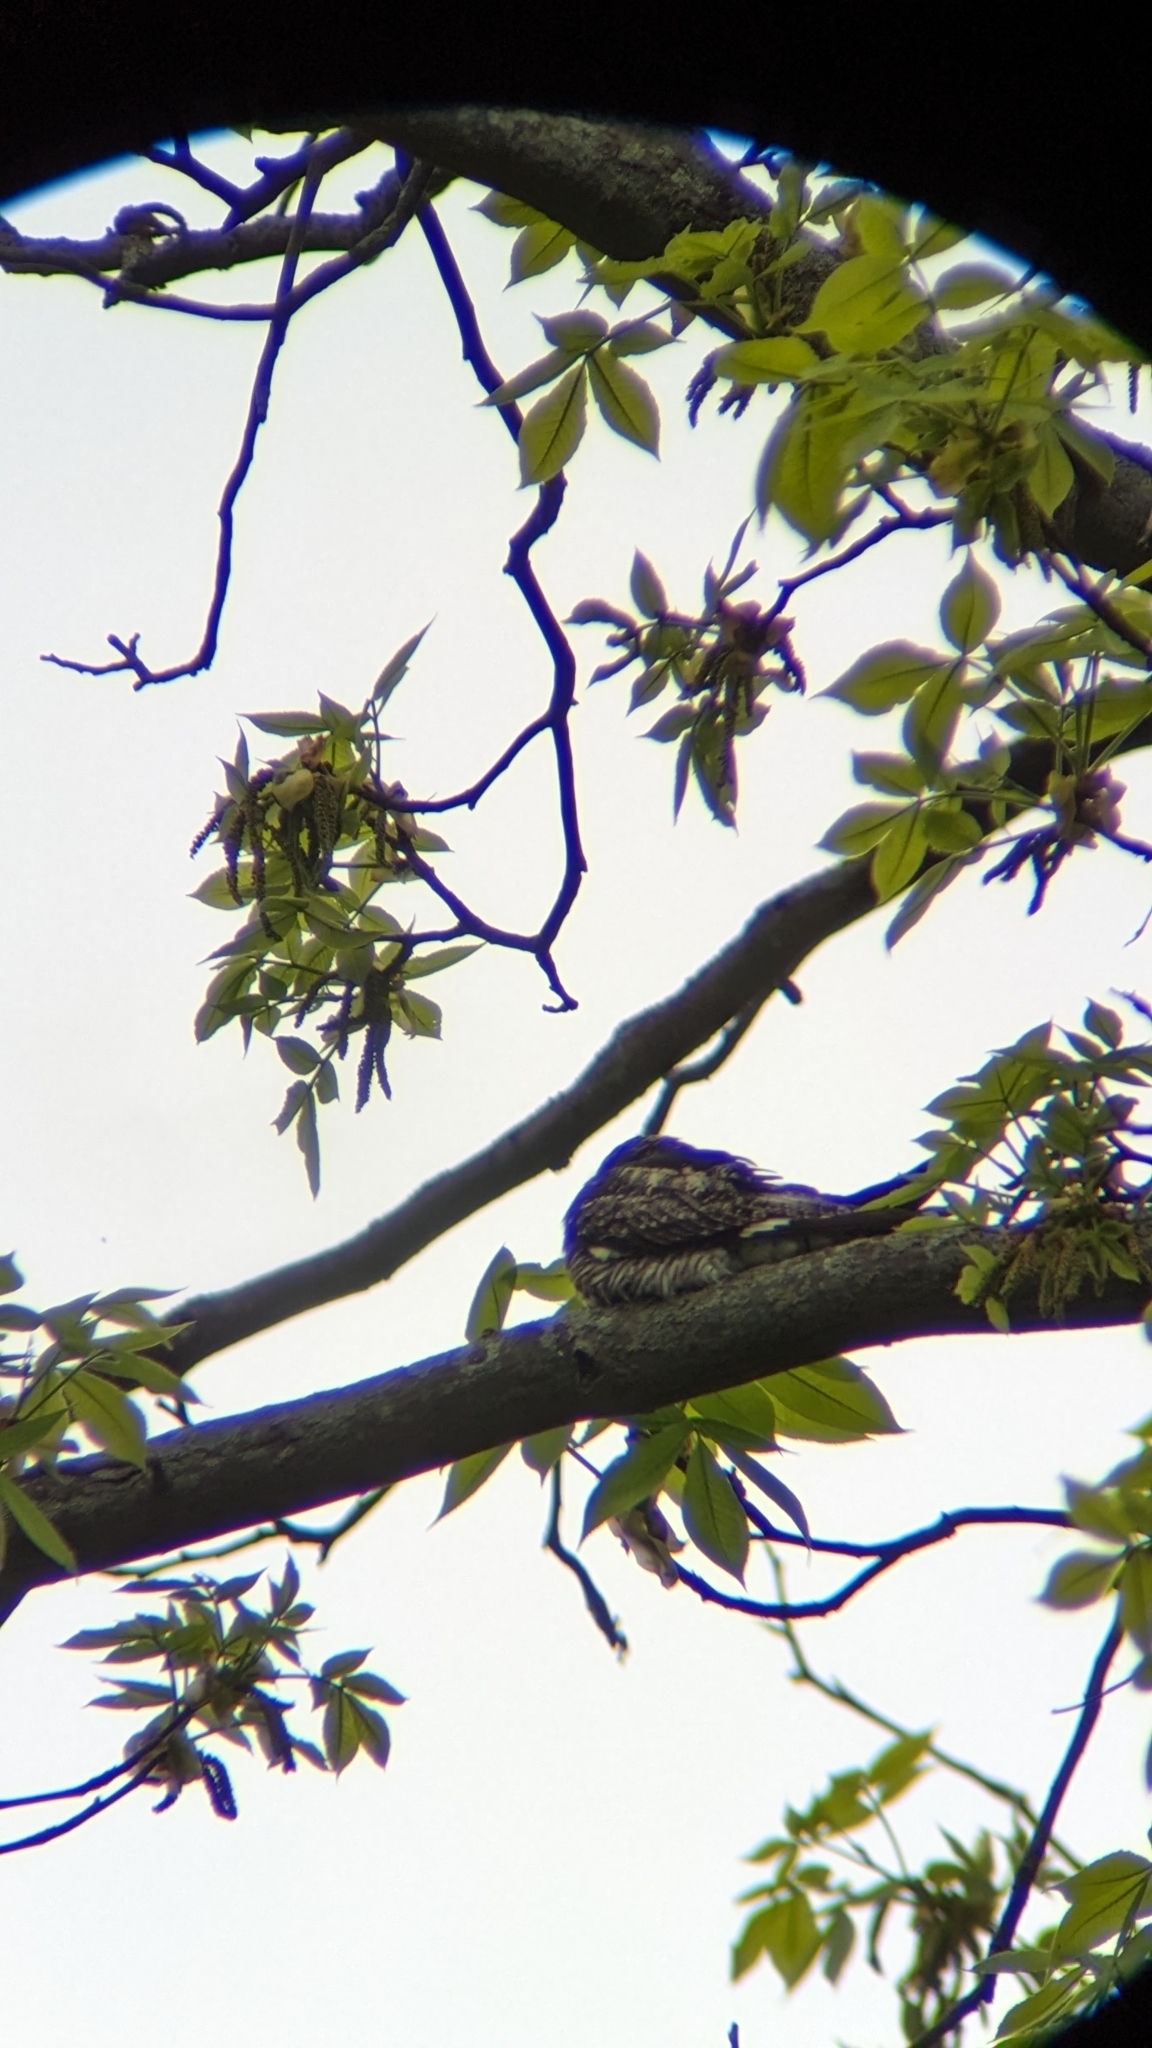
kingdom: Animalia
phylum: Chordata
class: Aves
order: Caprimulgiformes
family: Caprimulgidae
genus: Chordeiles
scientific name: Chordeiles minor
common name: Common nighthawk
